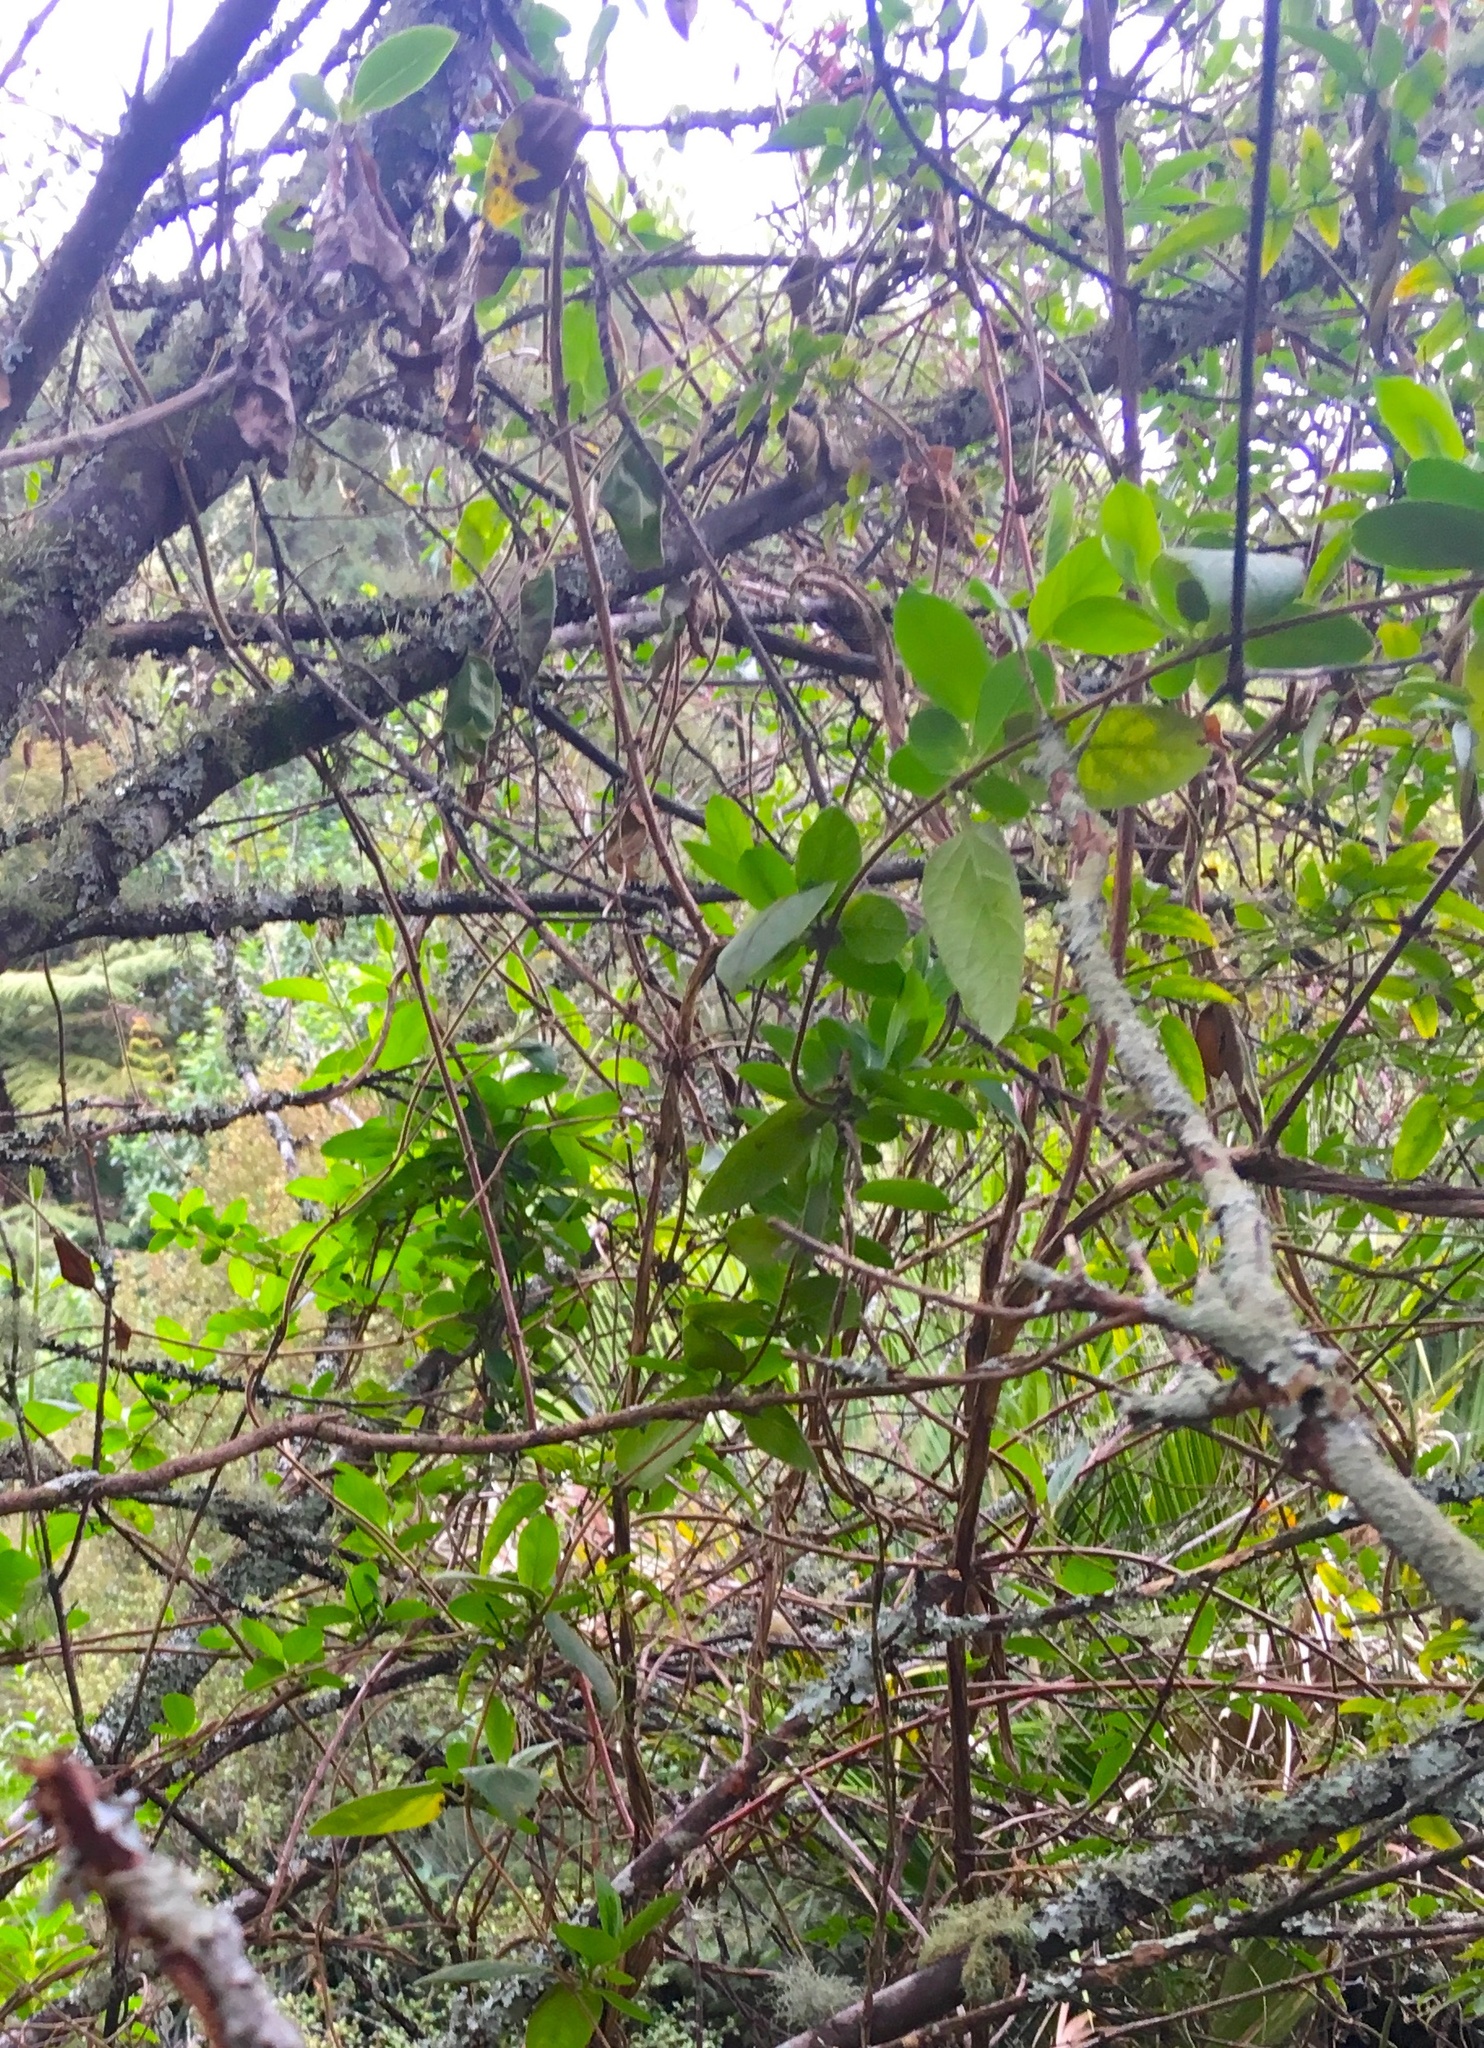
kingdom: Plantae
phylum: Tracheophyta
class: Magnoliopsida
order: Dipsacales
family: Caprifoliaceae
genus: Lonicera
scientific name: Lonicera japonica
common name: Japanese honeysuckle
